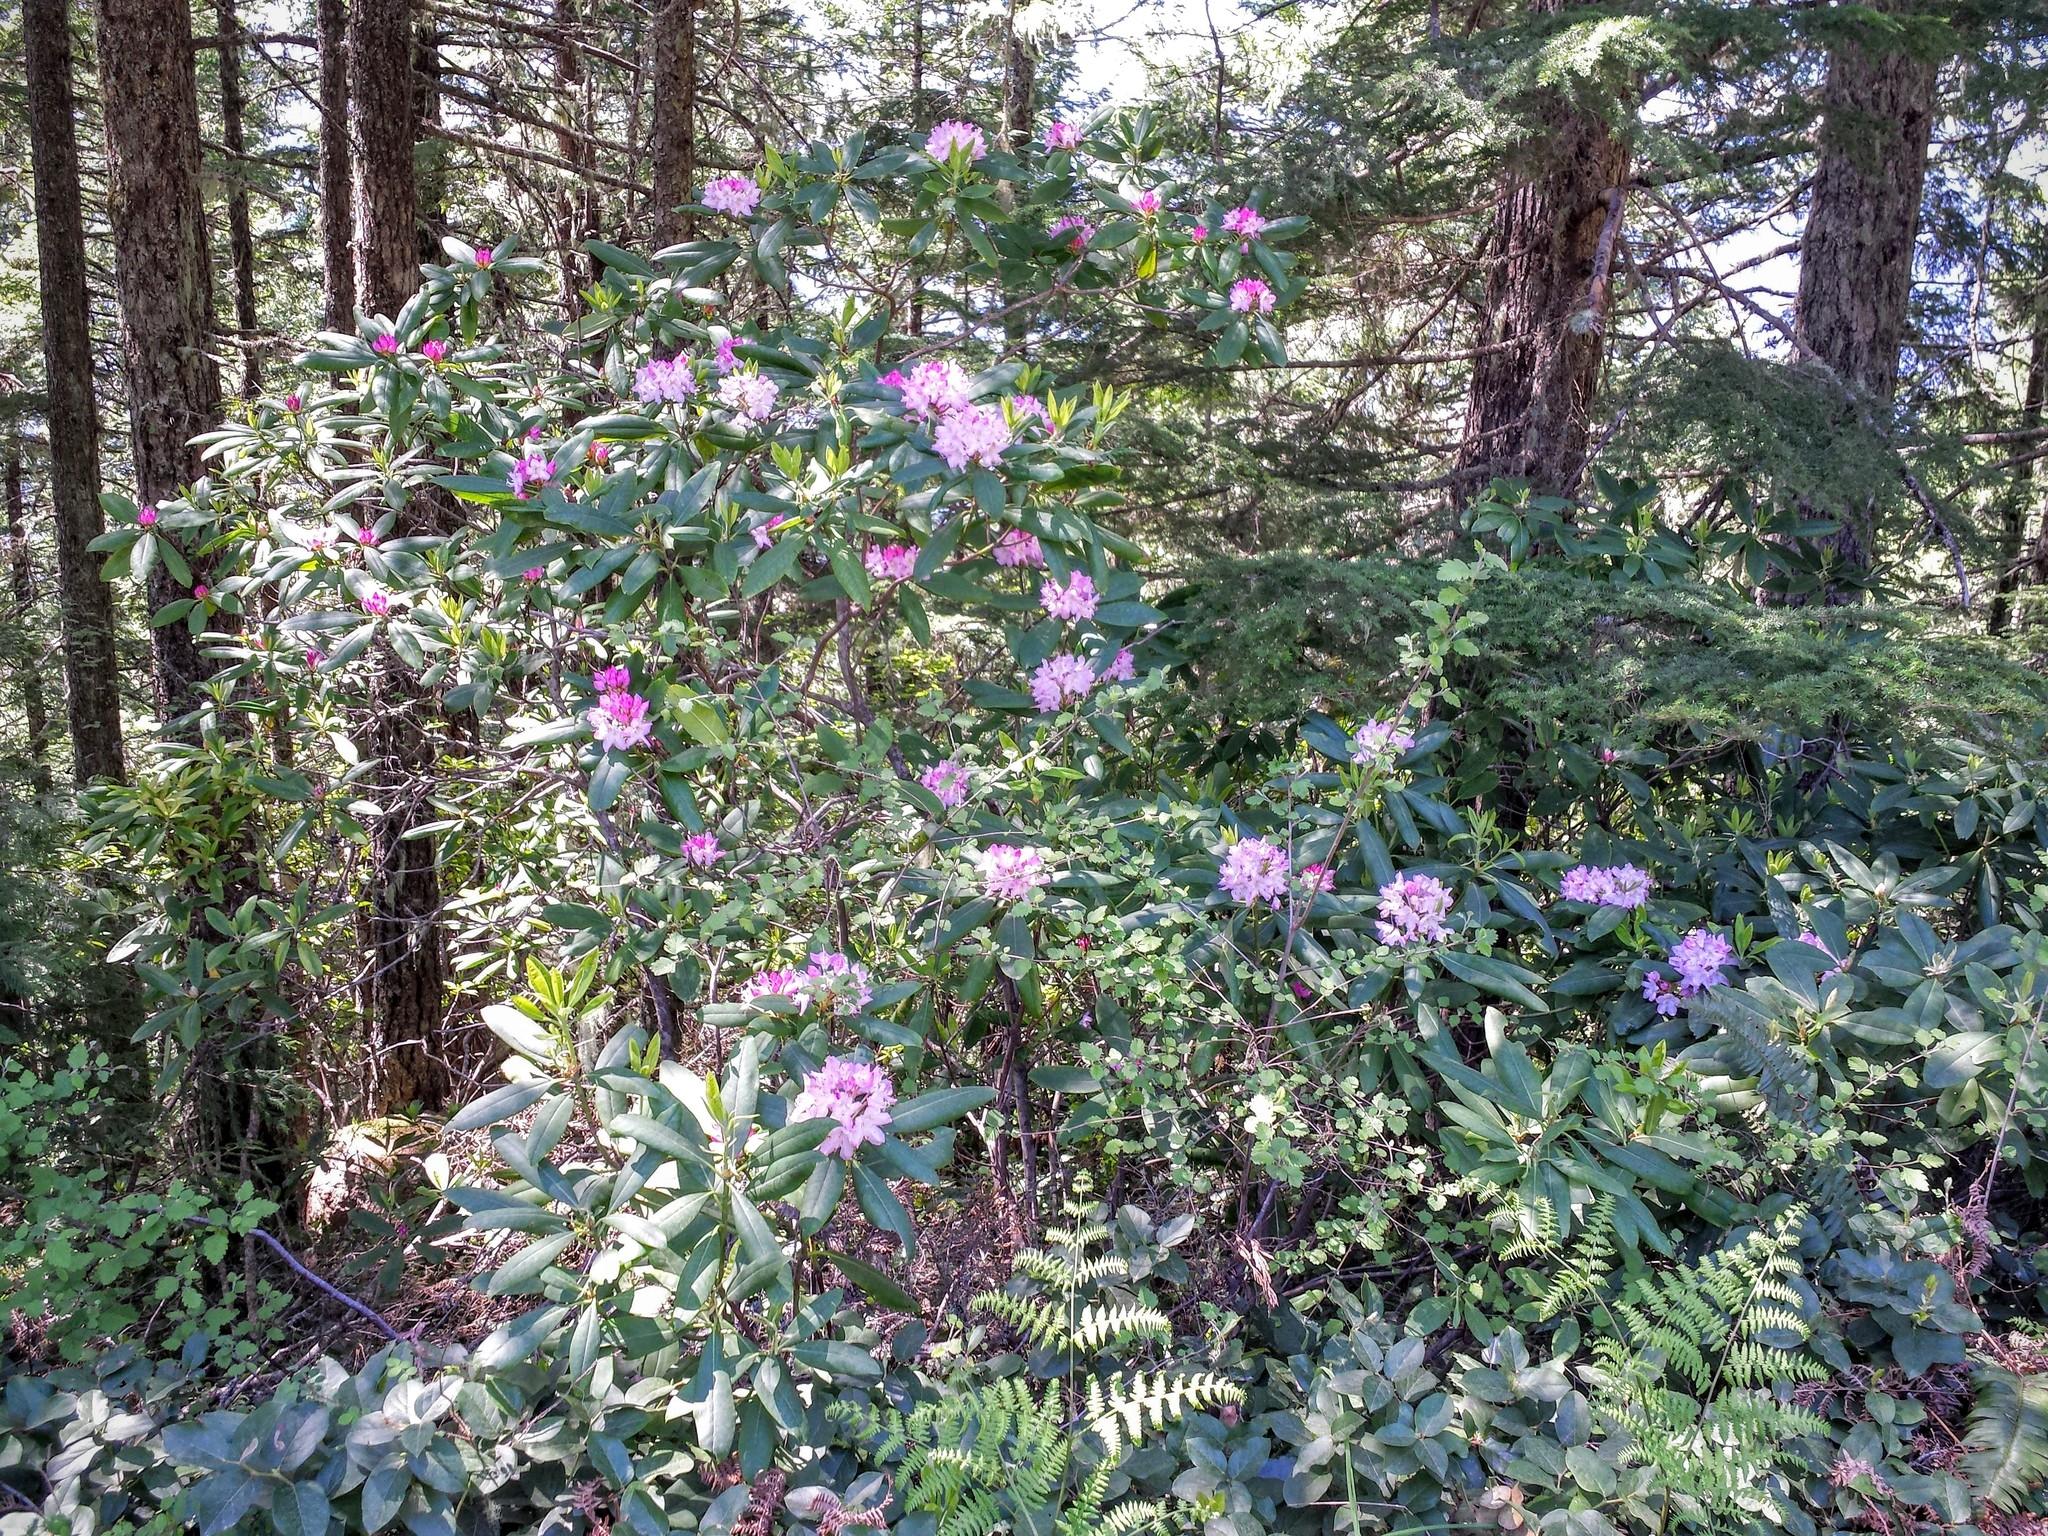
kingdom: Plantae
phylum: Tracheophyta
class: Magnoliopsida
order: Ericales
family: Ericaceae
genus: Rhododendron
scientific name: Rhododendron macrophyllum
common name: California rose bay
